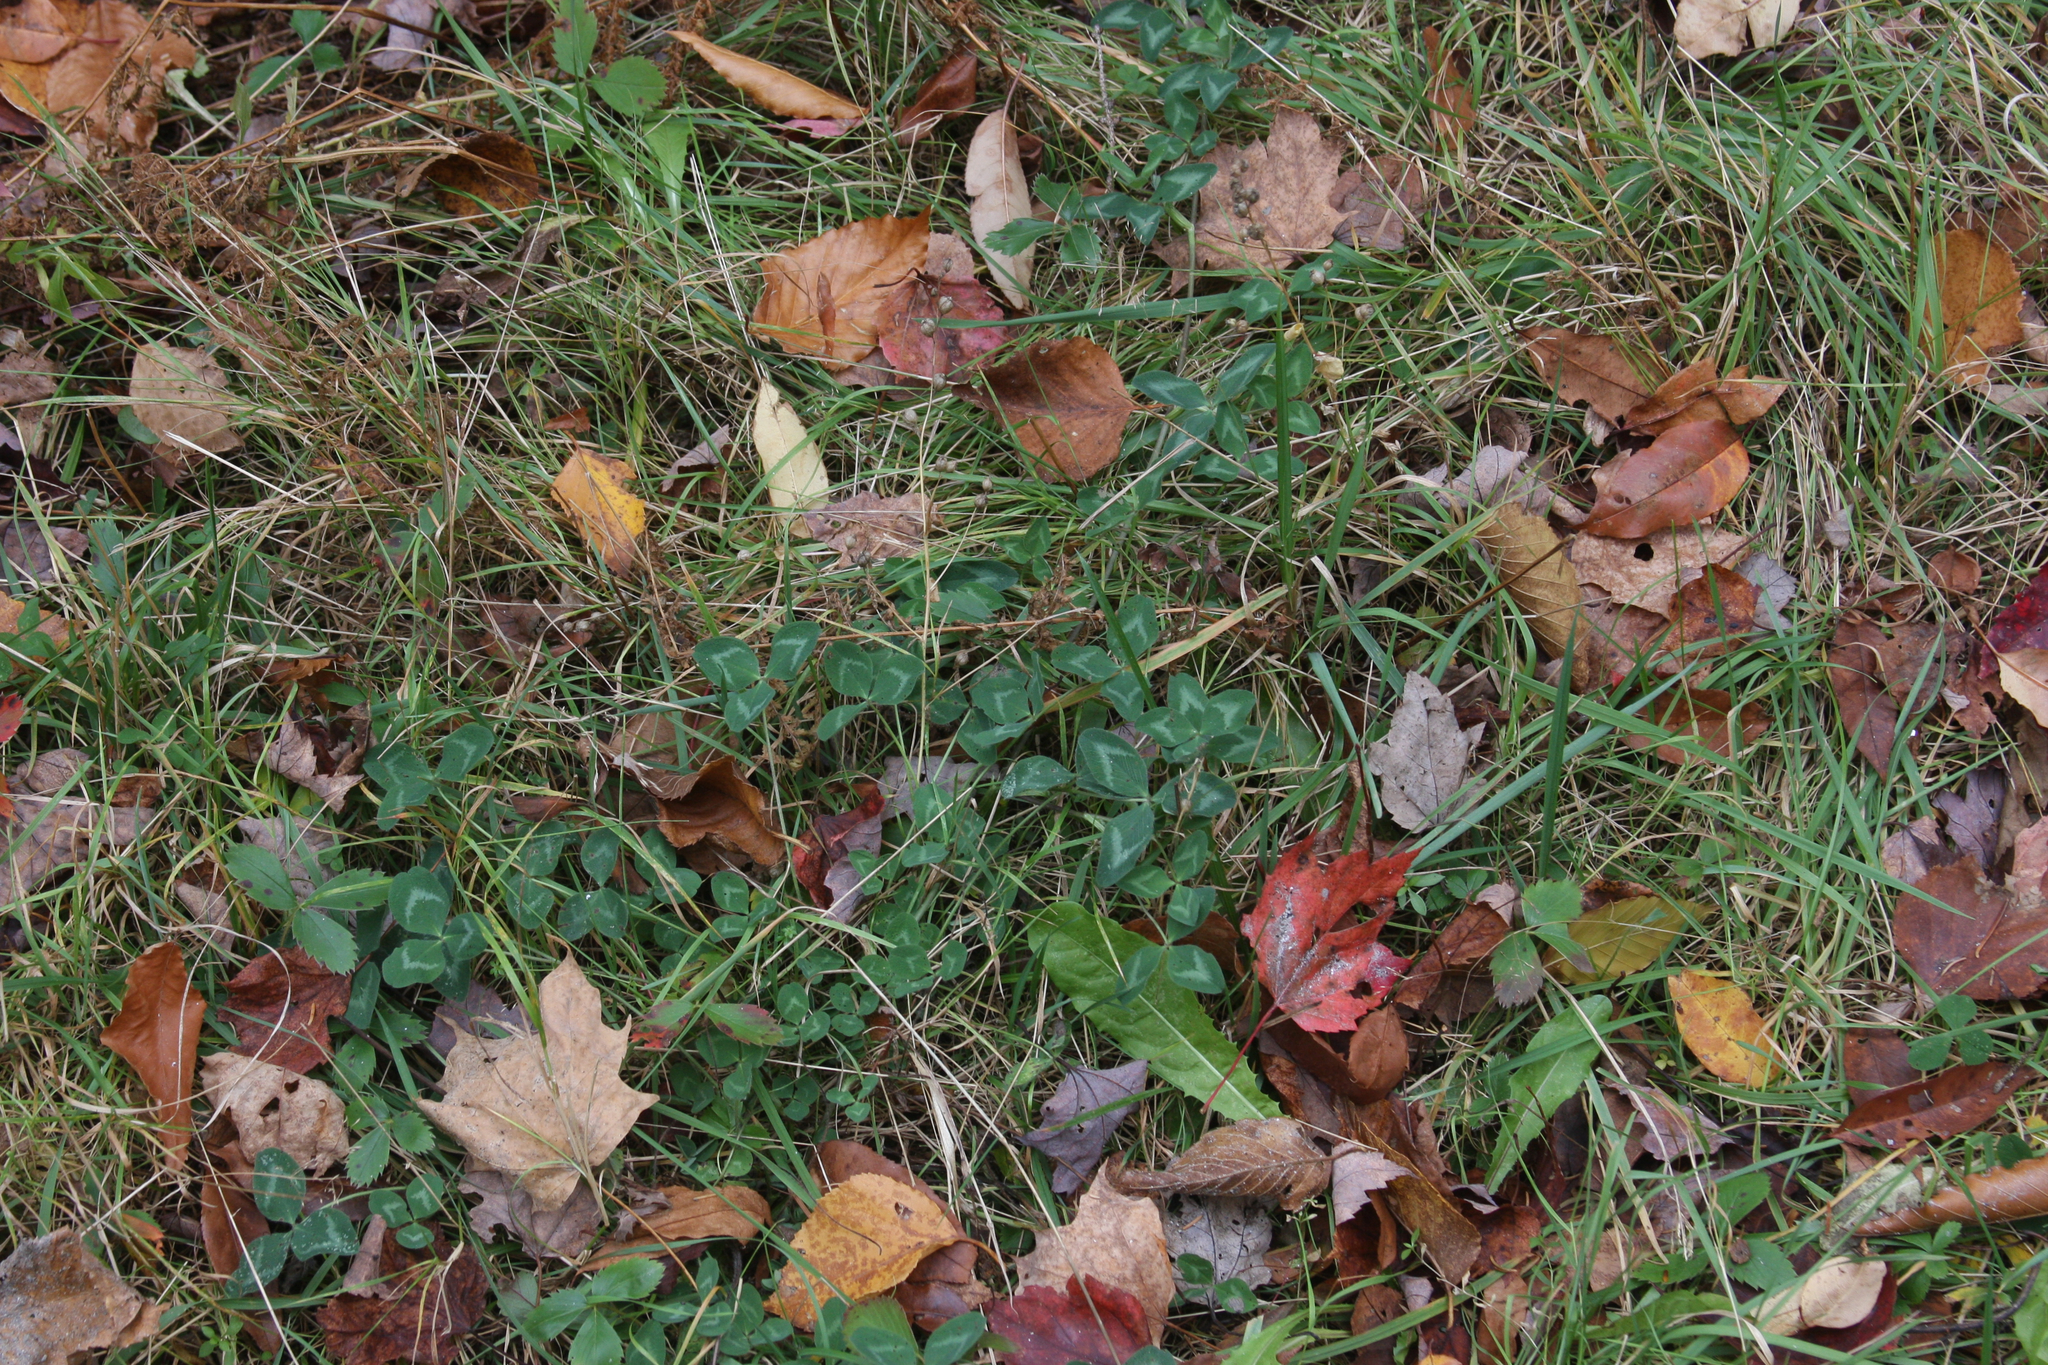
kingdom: Plantae
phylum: Tracheophyta
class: Magnoliopsida
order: Fabales
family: Fabaceae
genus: Trifolium
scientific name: Trifolium pratense
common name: Red clover
